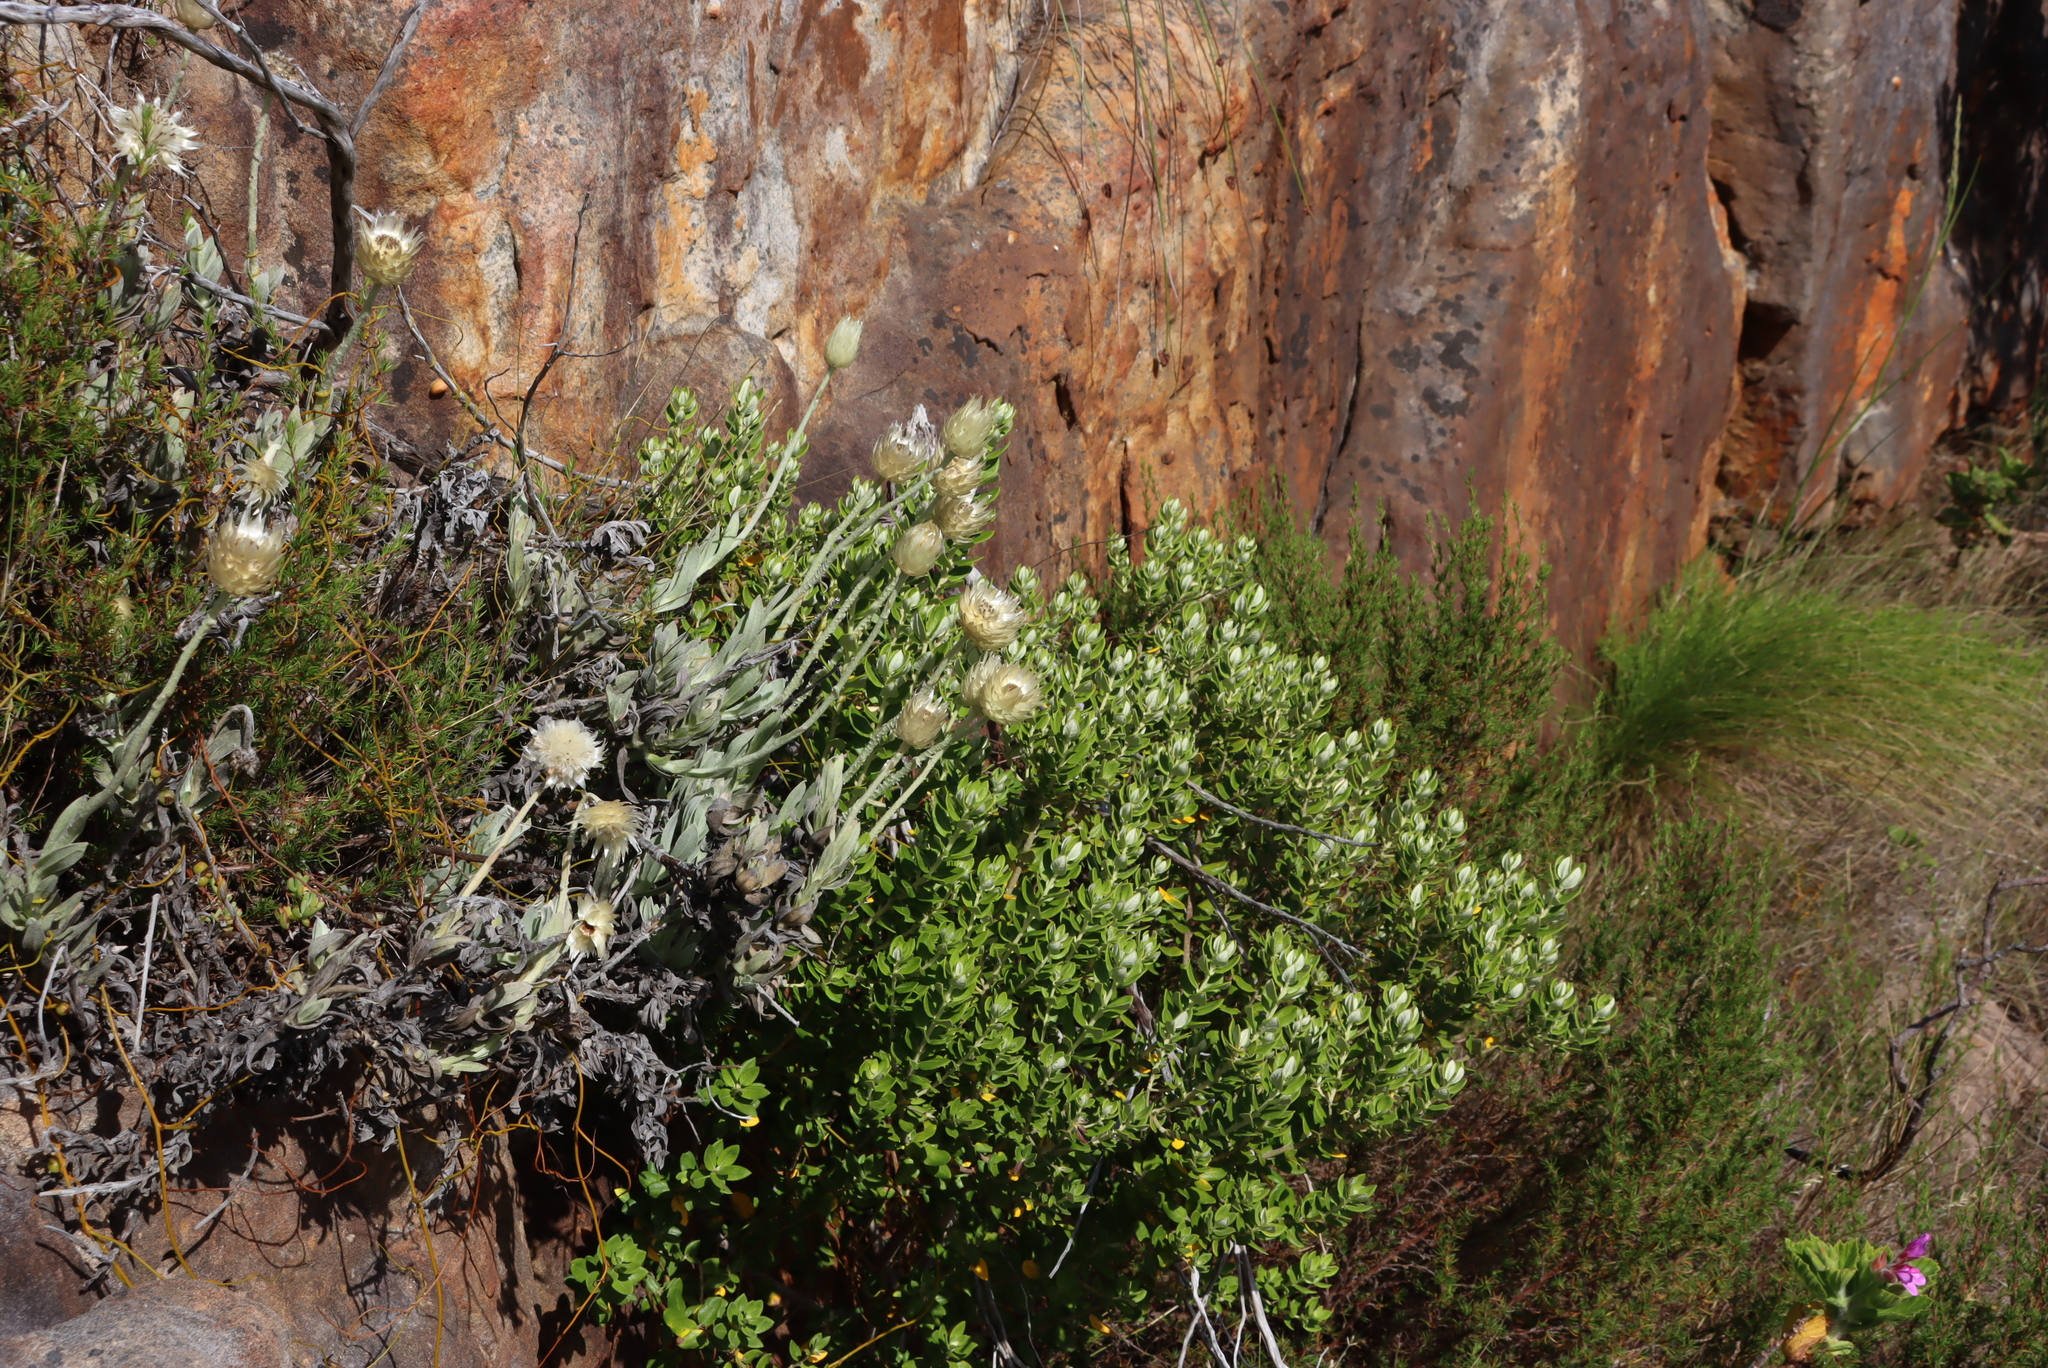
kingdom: Plantae
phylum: Tracheophyta
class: Magnoliopsida
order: Rosales
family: Rhamnaceae
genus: Phylica
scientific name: Phylica buxifolia
